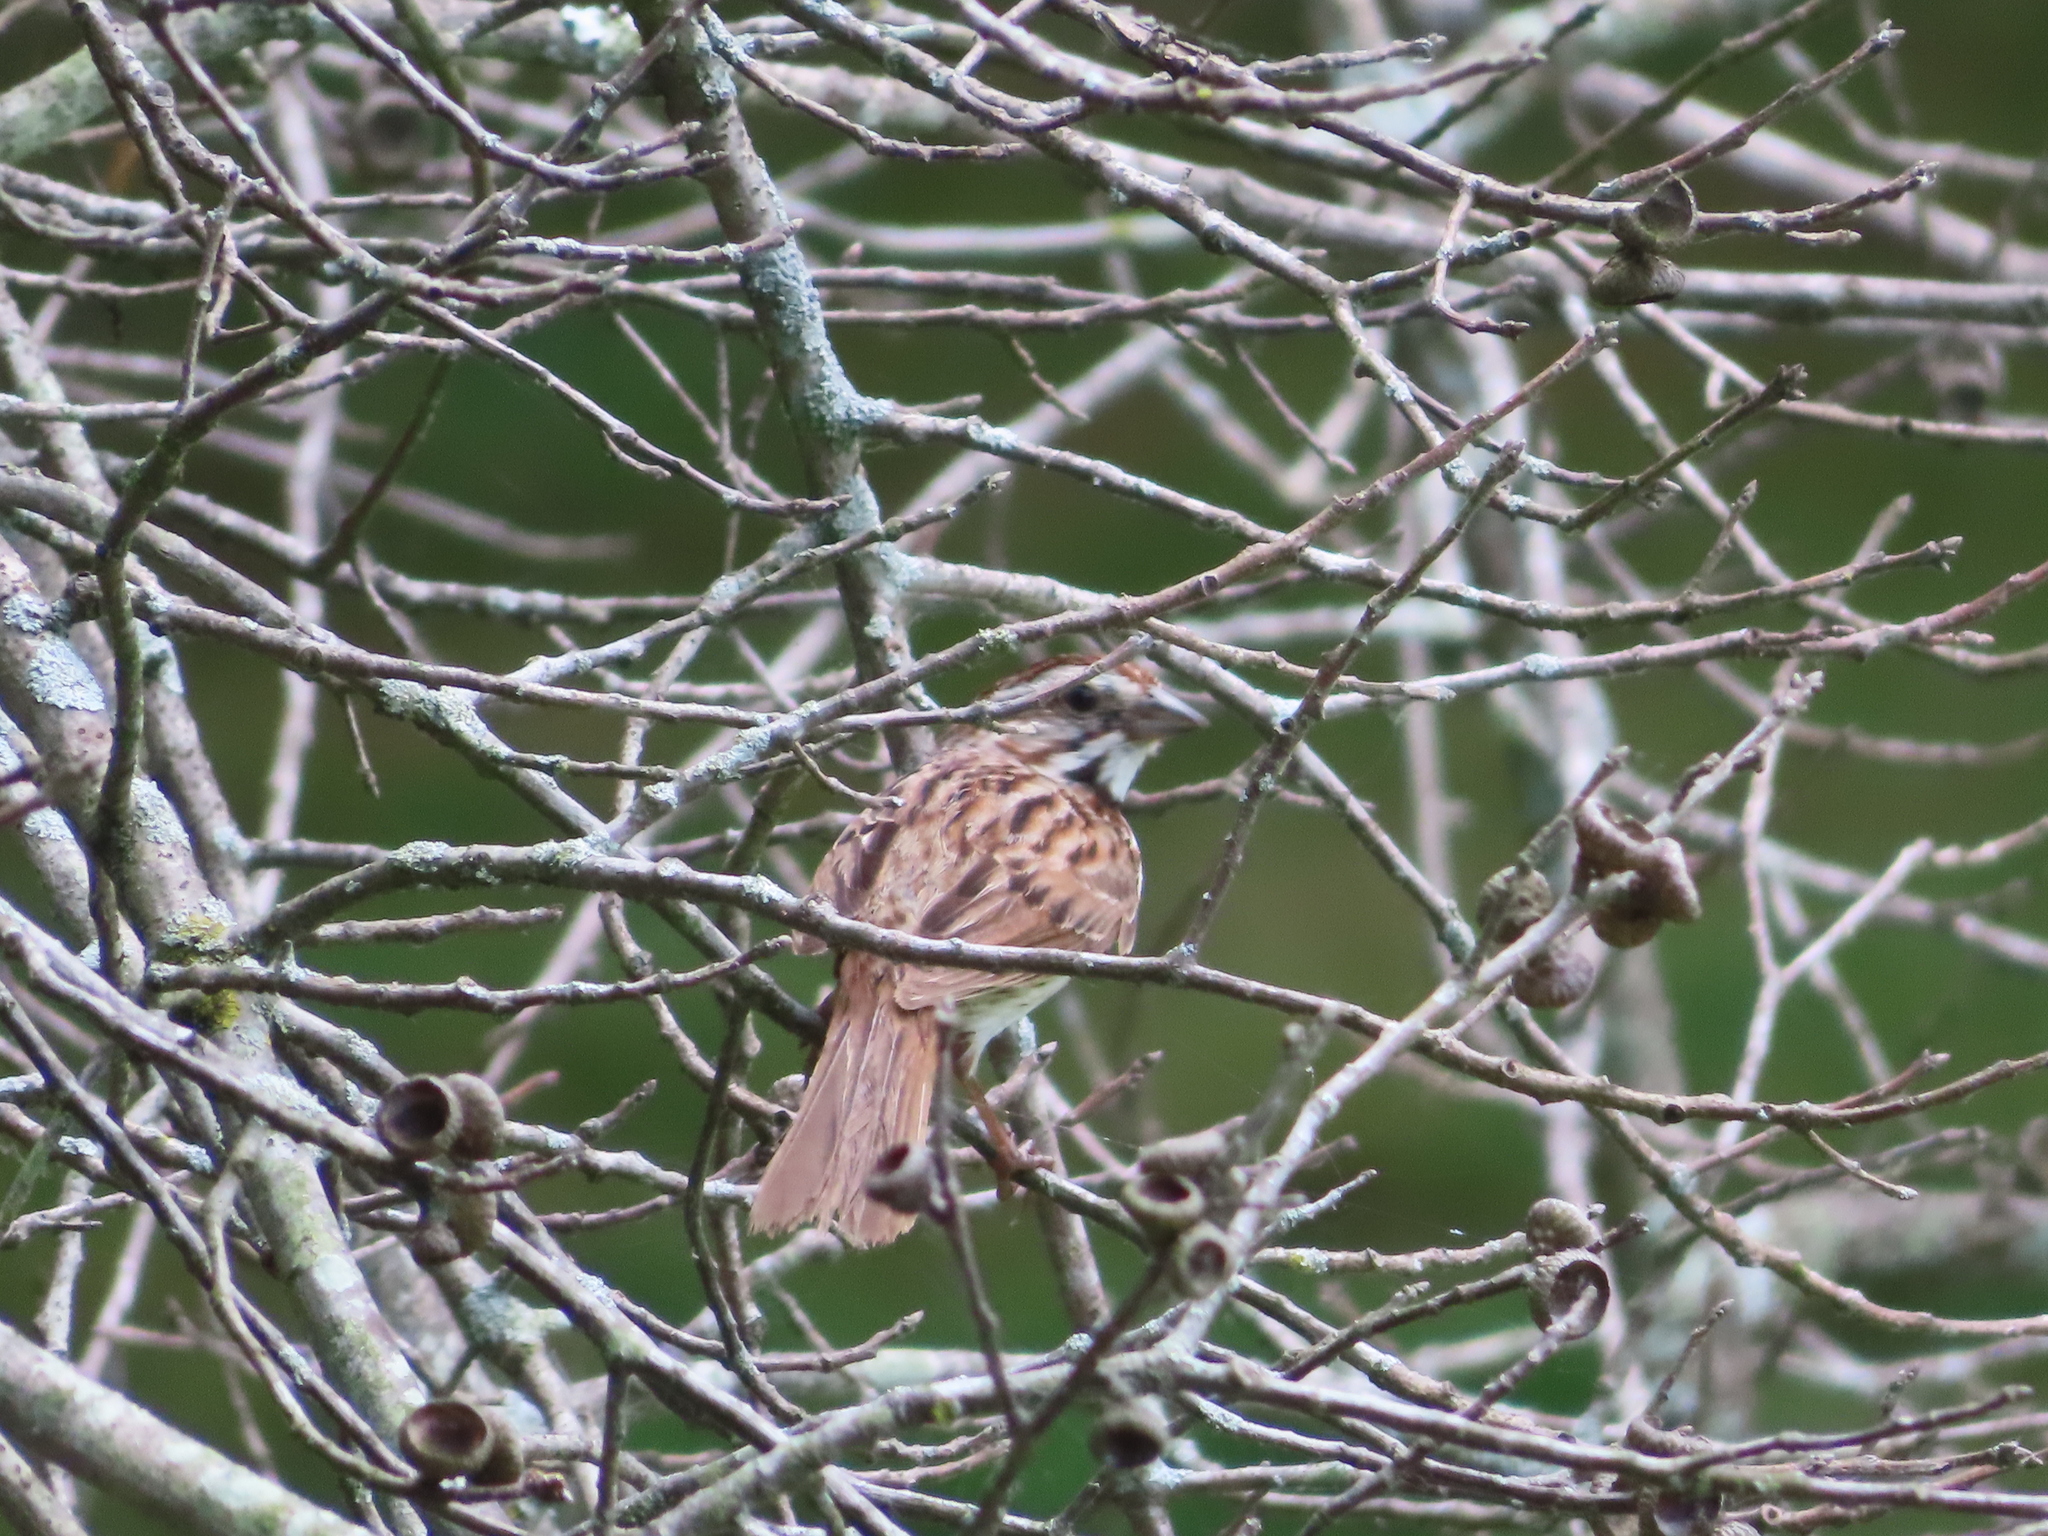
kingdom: Animalia
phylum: Chordata
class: Aves
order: Passeriformes
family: Passerellidae
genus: Melospiza
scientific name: Melospiza melodia
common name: Song sparrow
